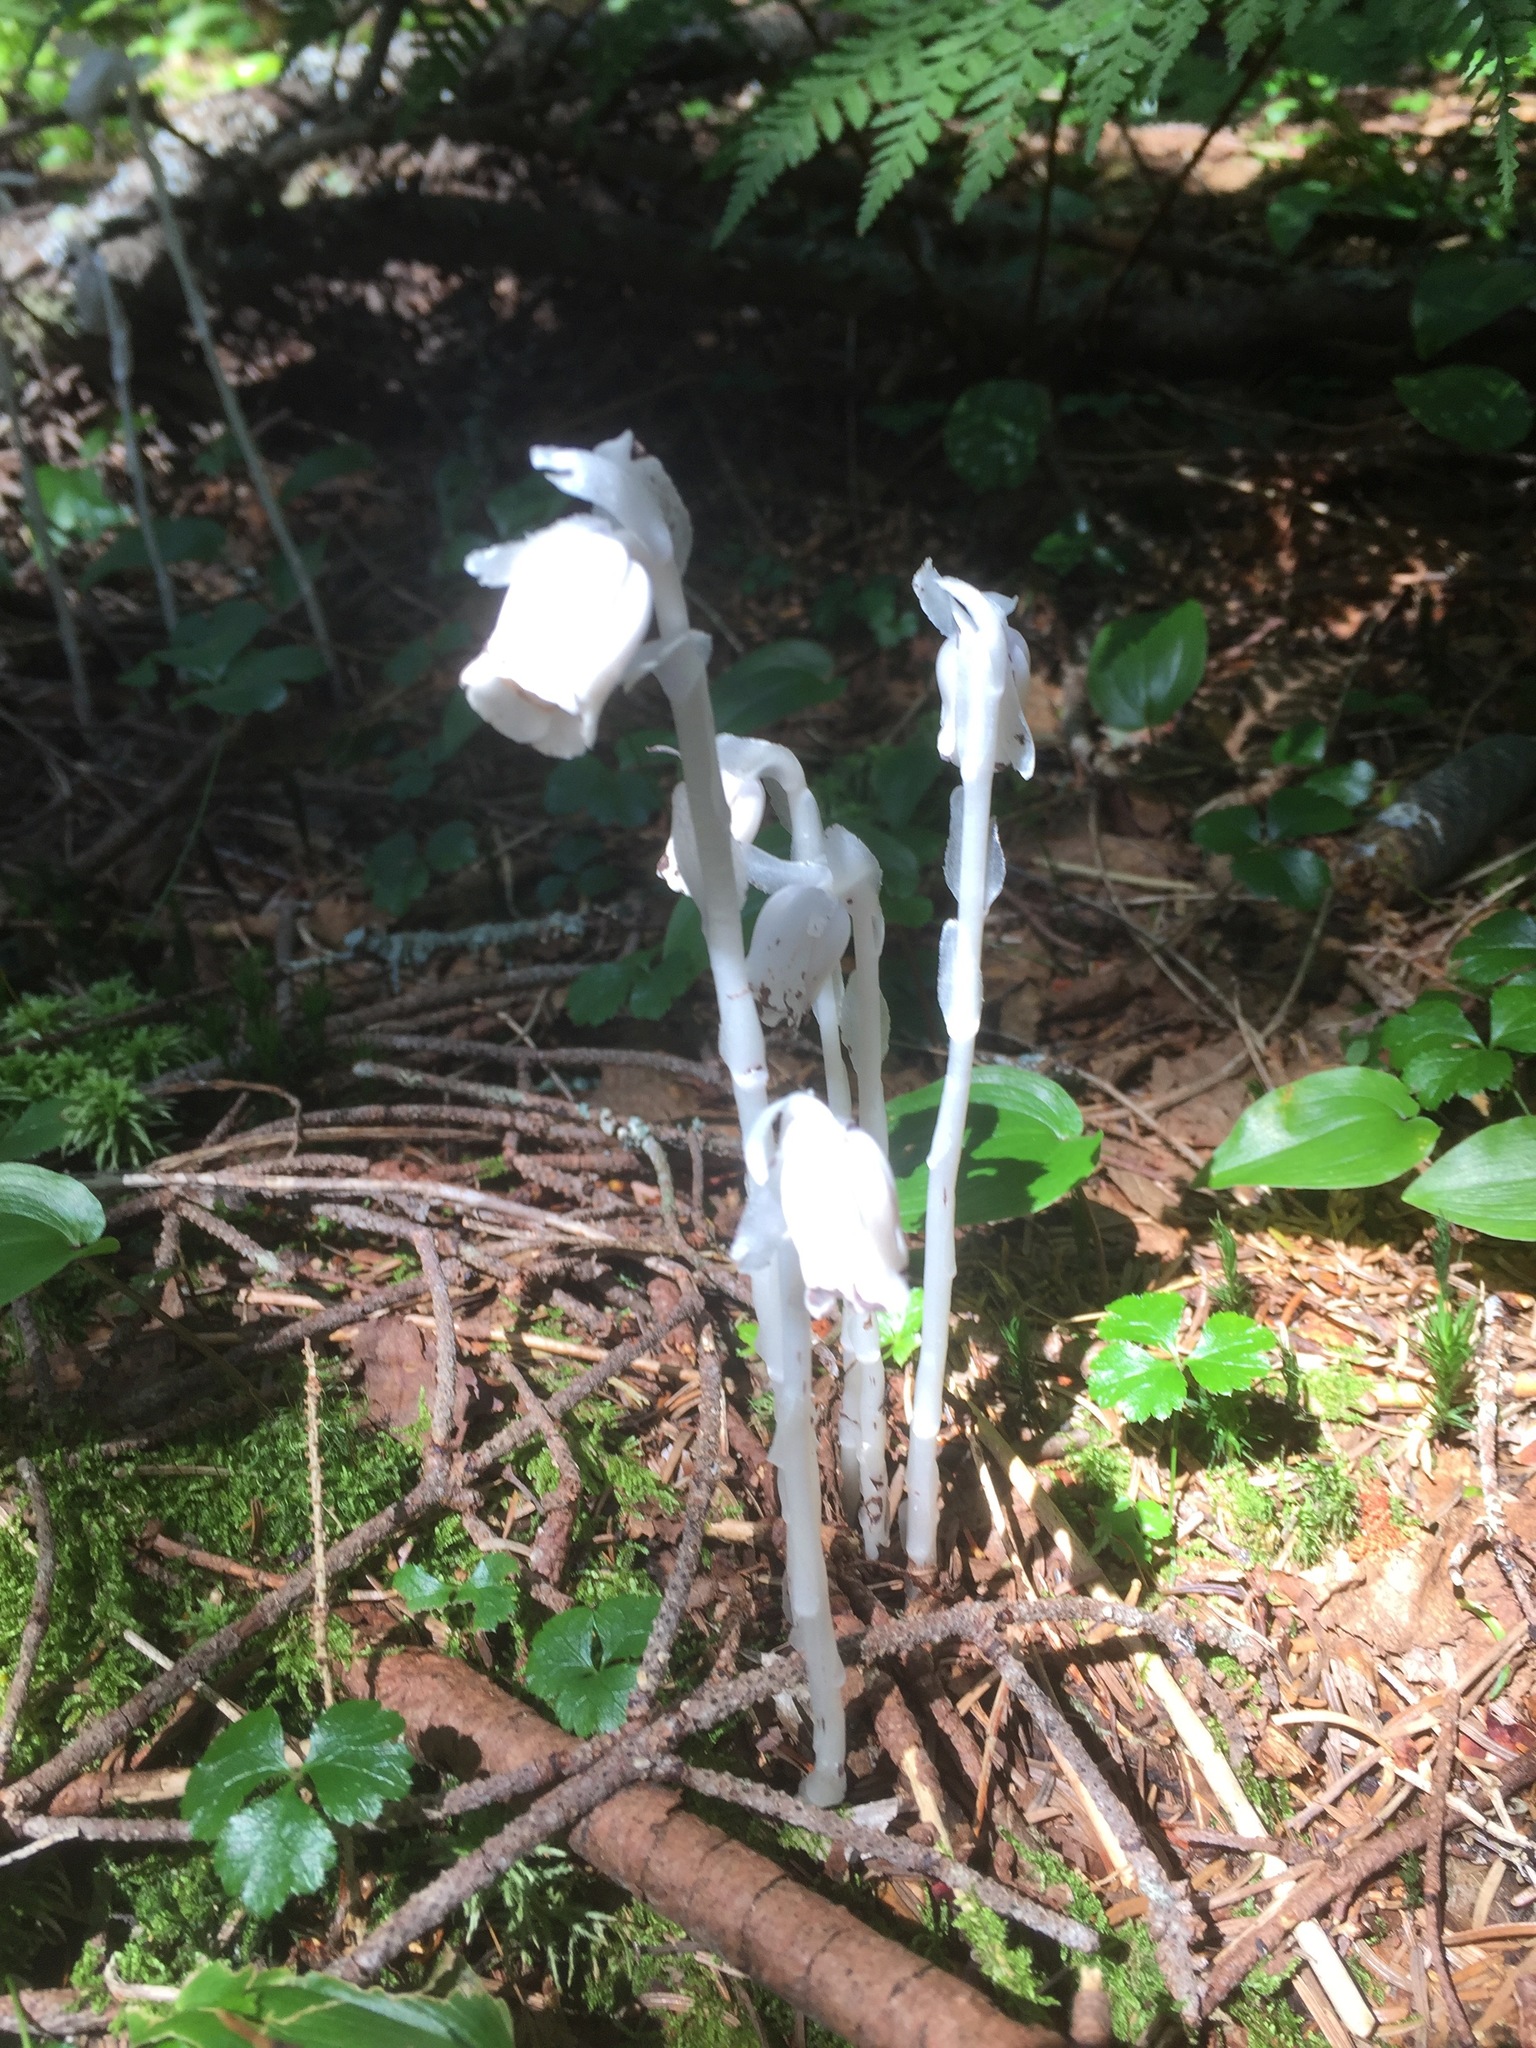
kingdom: Plantae
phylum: Tracheophyta
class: Magnoliopsida
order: Ericales
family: Ericaceae
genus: Monotropa
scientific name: Monotropa uniflora
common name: Convulsion root
